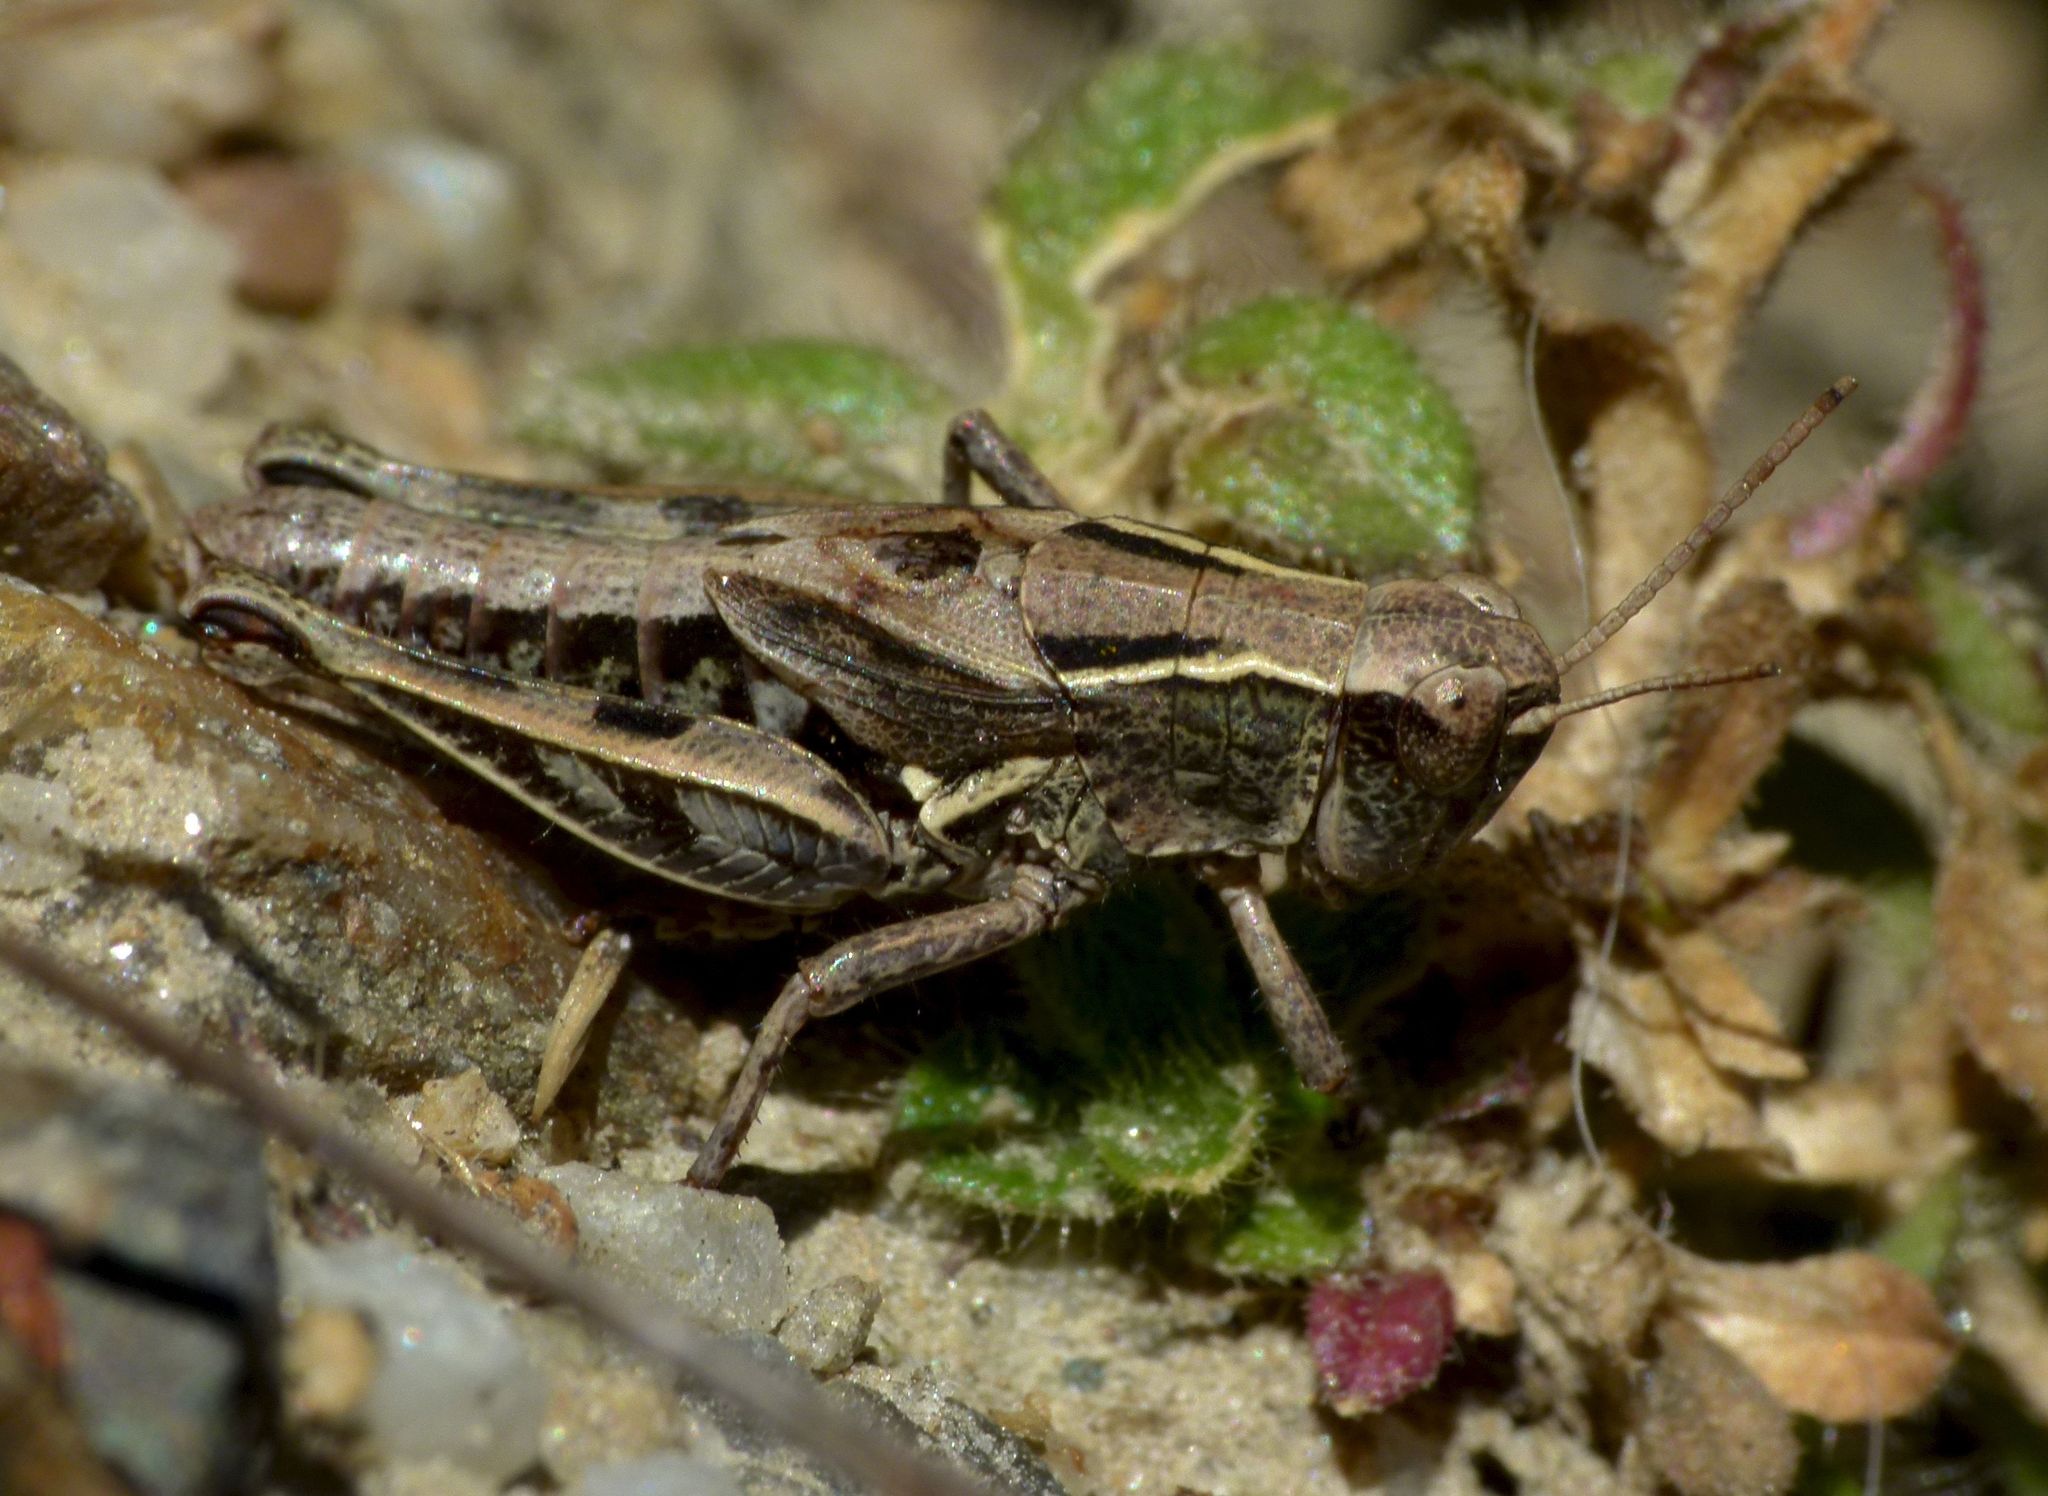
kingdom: Animalia
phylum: Arthropoda
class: Insecta
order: Orthoptera
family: Acrididae
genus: Phaulacridium
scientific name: Phaulacridium marginale
